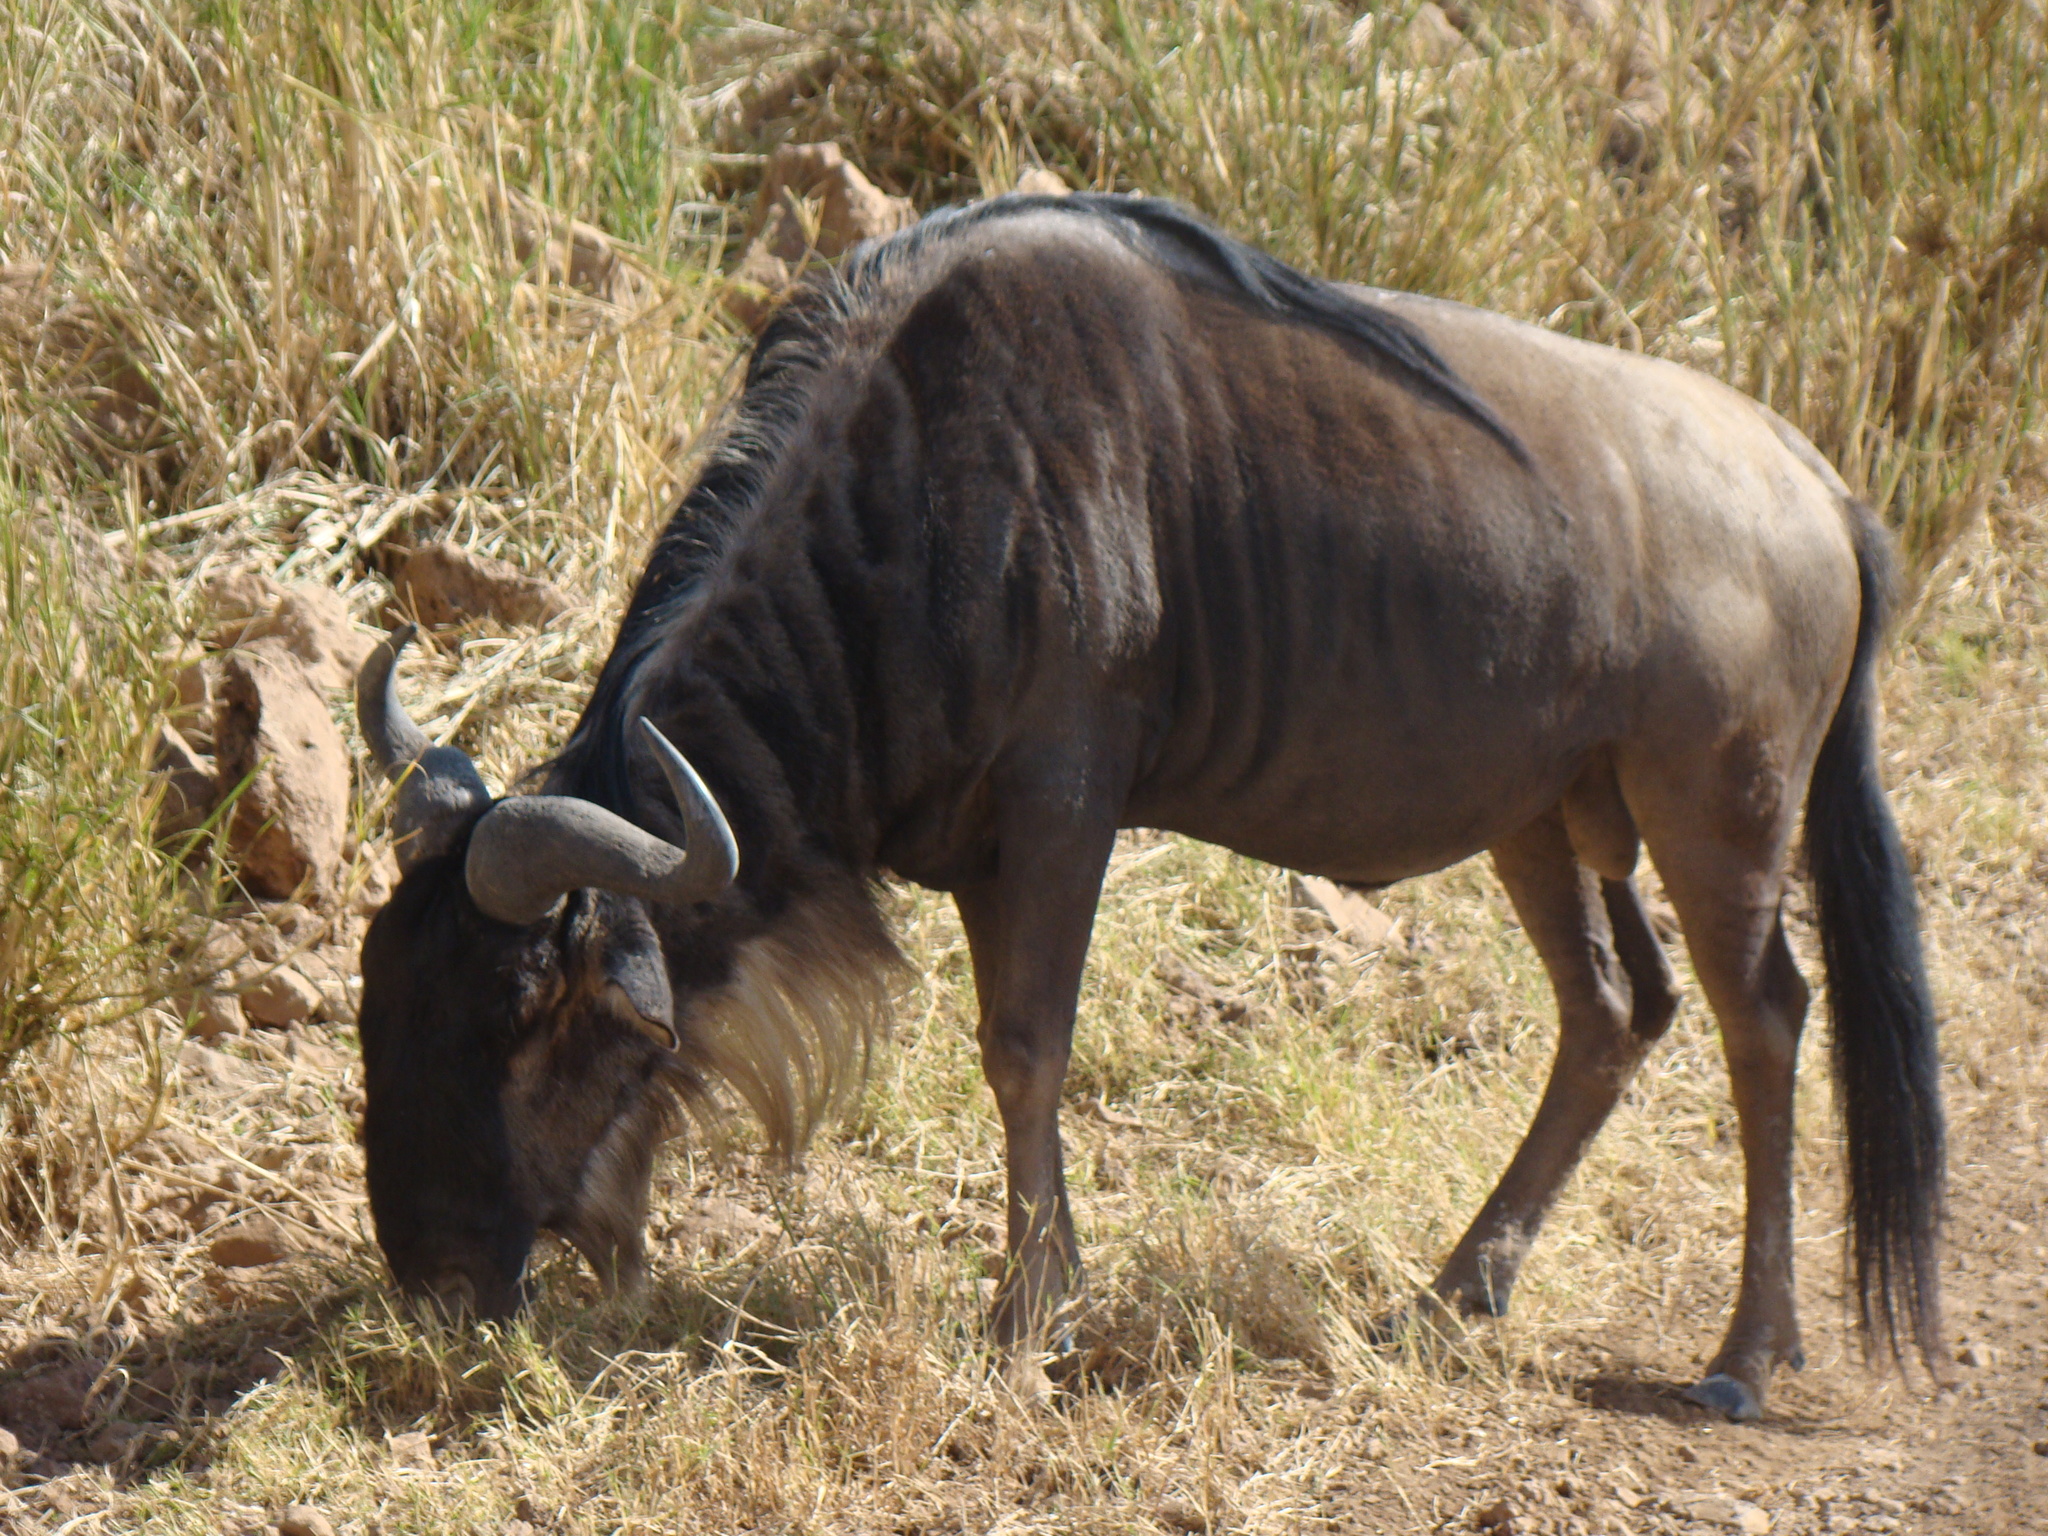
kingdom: Animalia
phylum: Chordata
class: Mammalia
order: Artiodactyla
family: Bovidae
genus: Connochaetes
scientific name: Connochaetes taurinus
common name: Blue wildebeest
